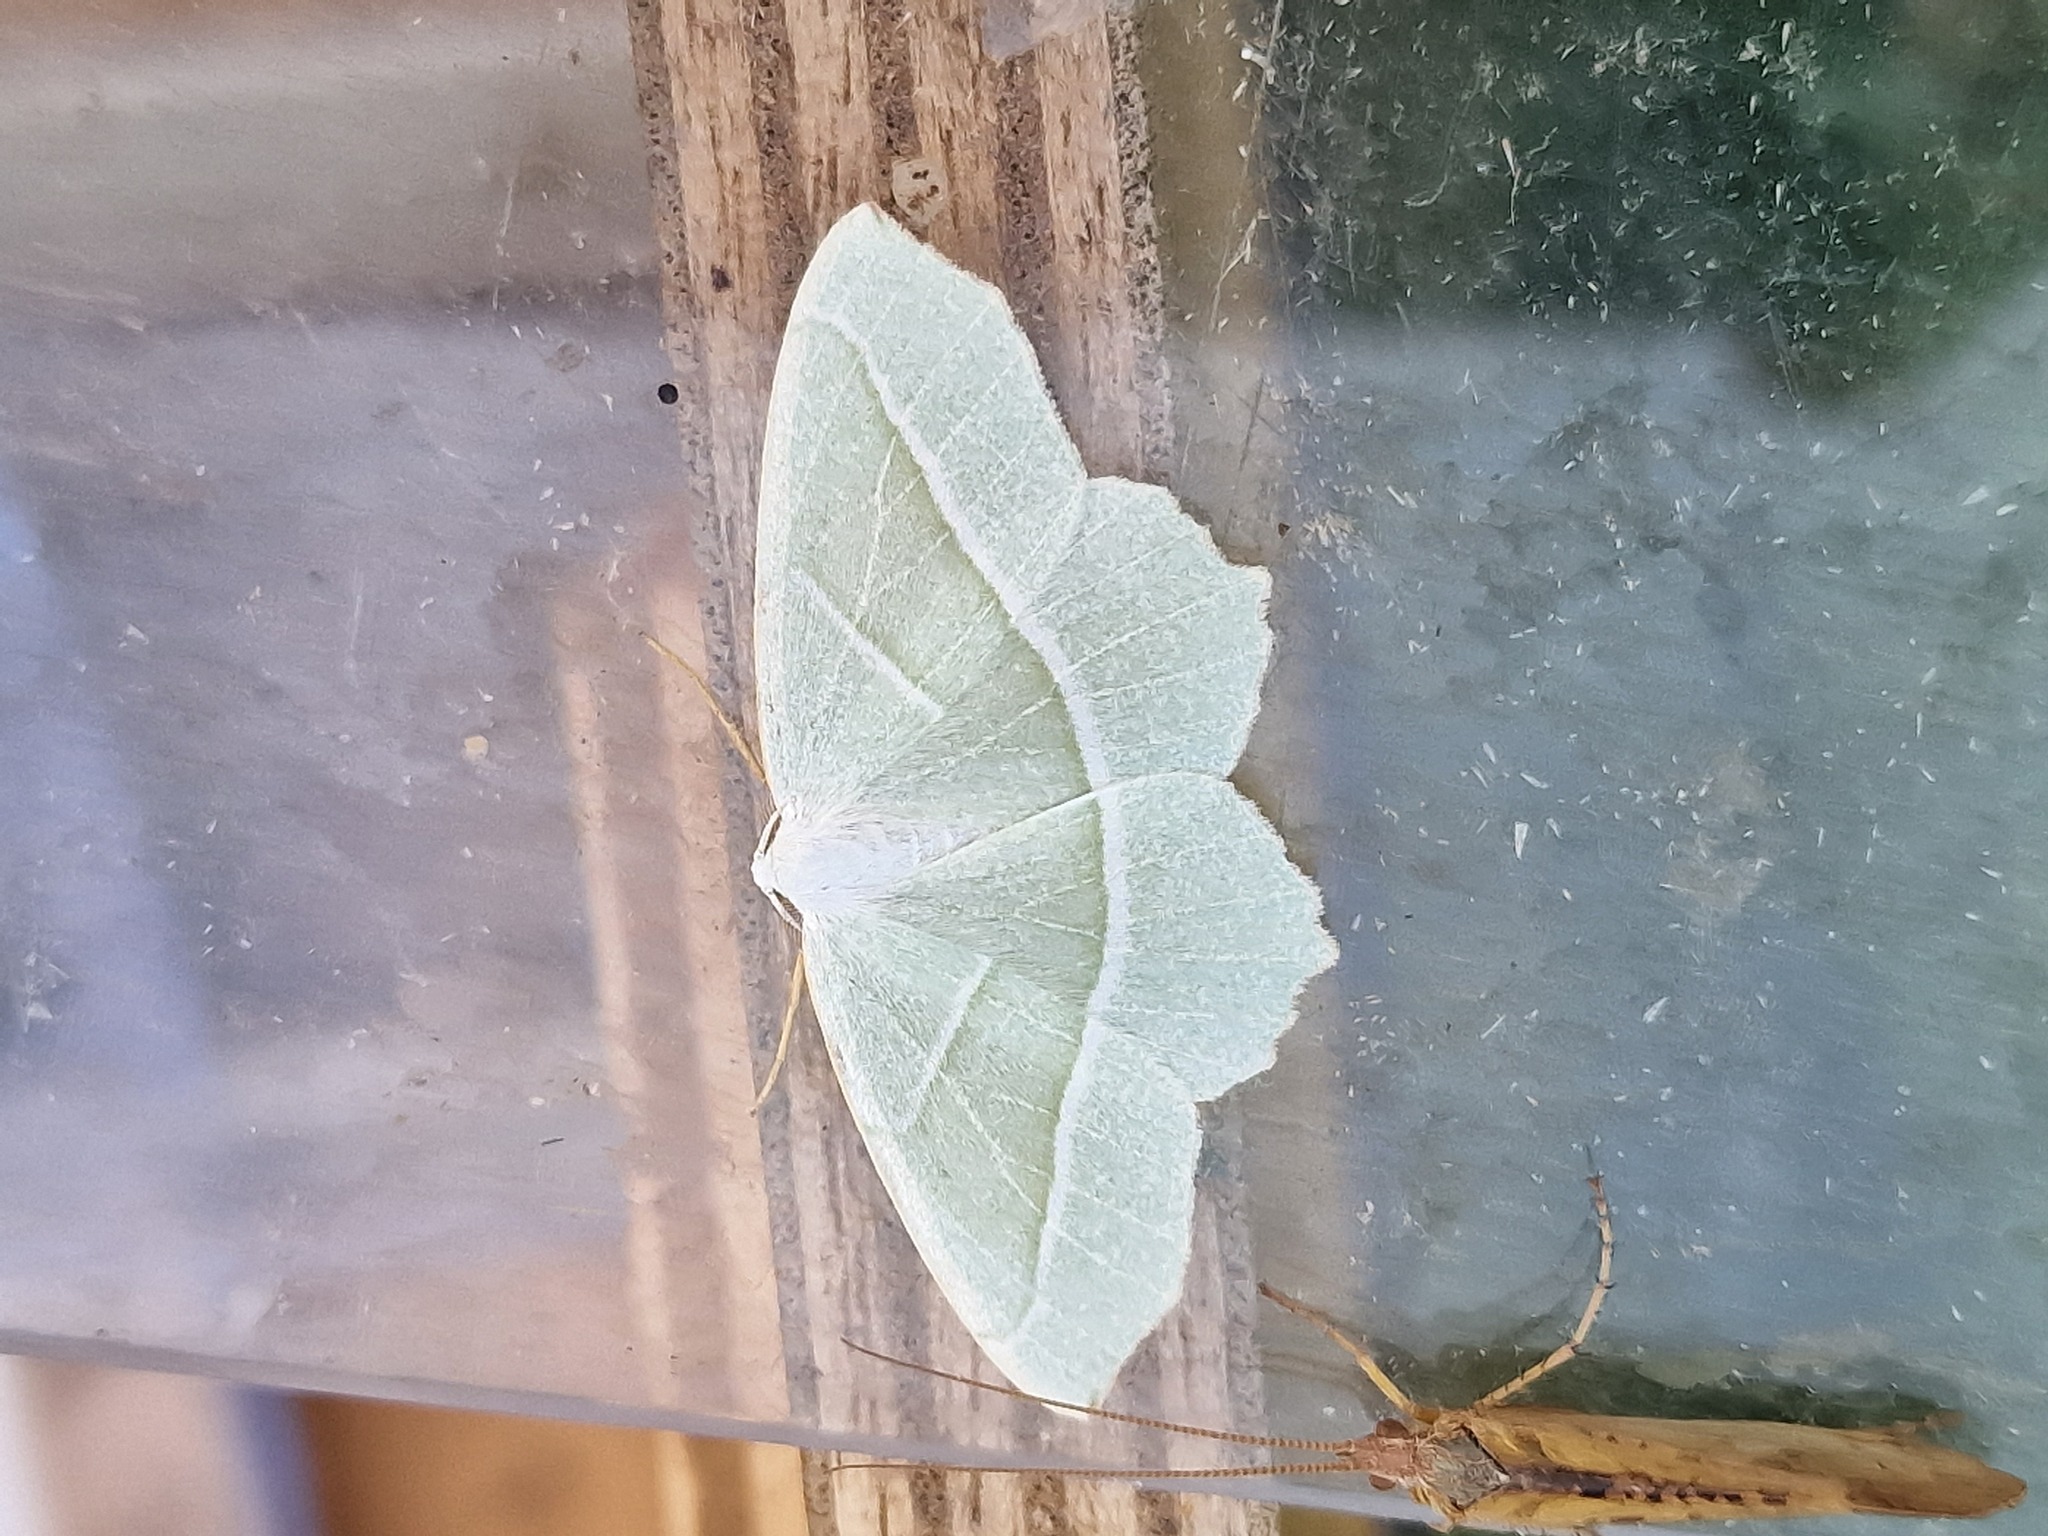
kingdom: Animalia
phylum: Arthropoda
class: Insecta
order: Lepidoptera
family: Geometridae
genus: Campaea
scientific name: Campaea margaritaria
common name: Light emerald
